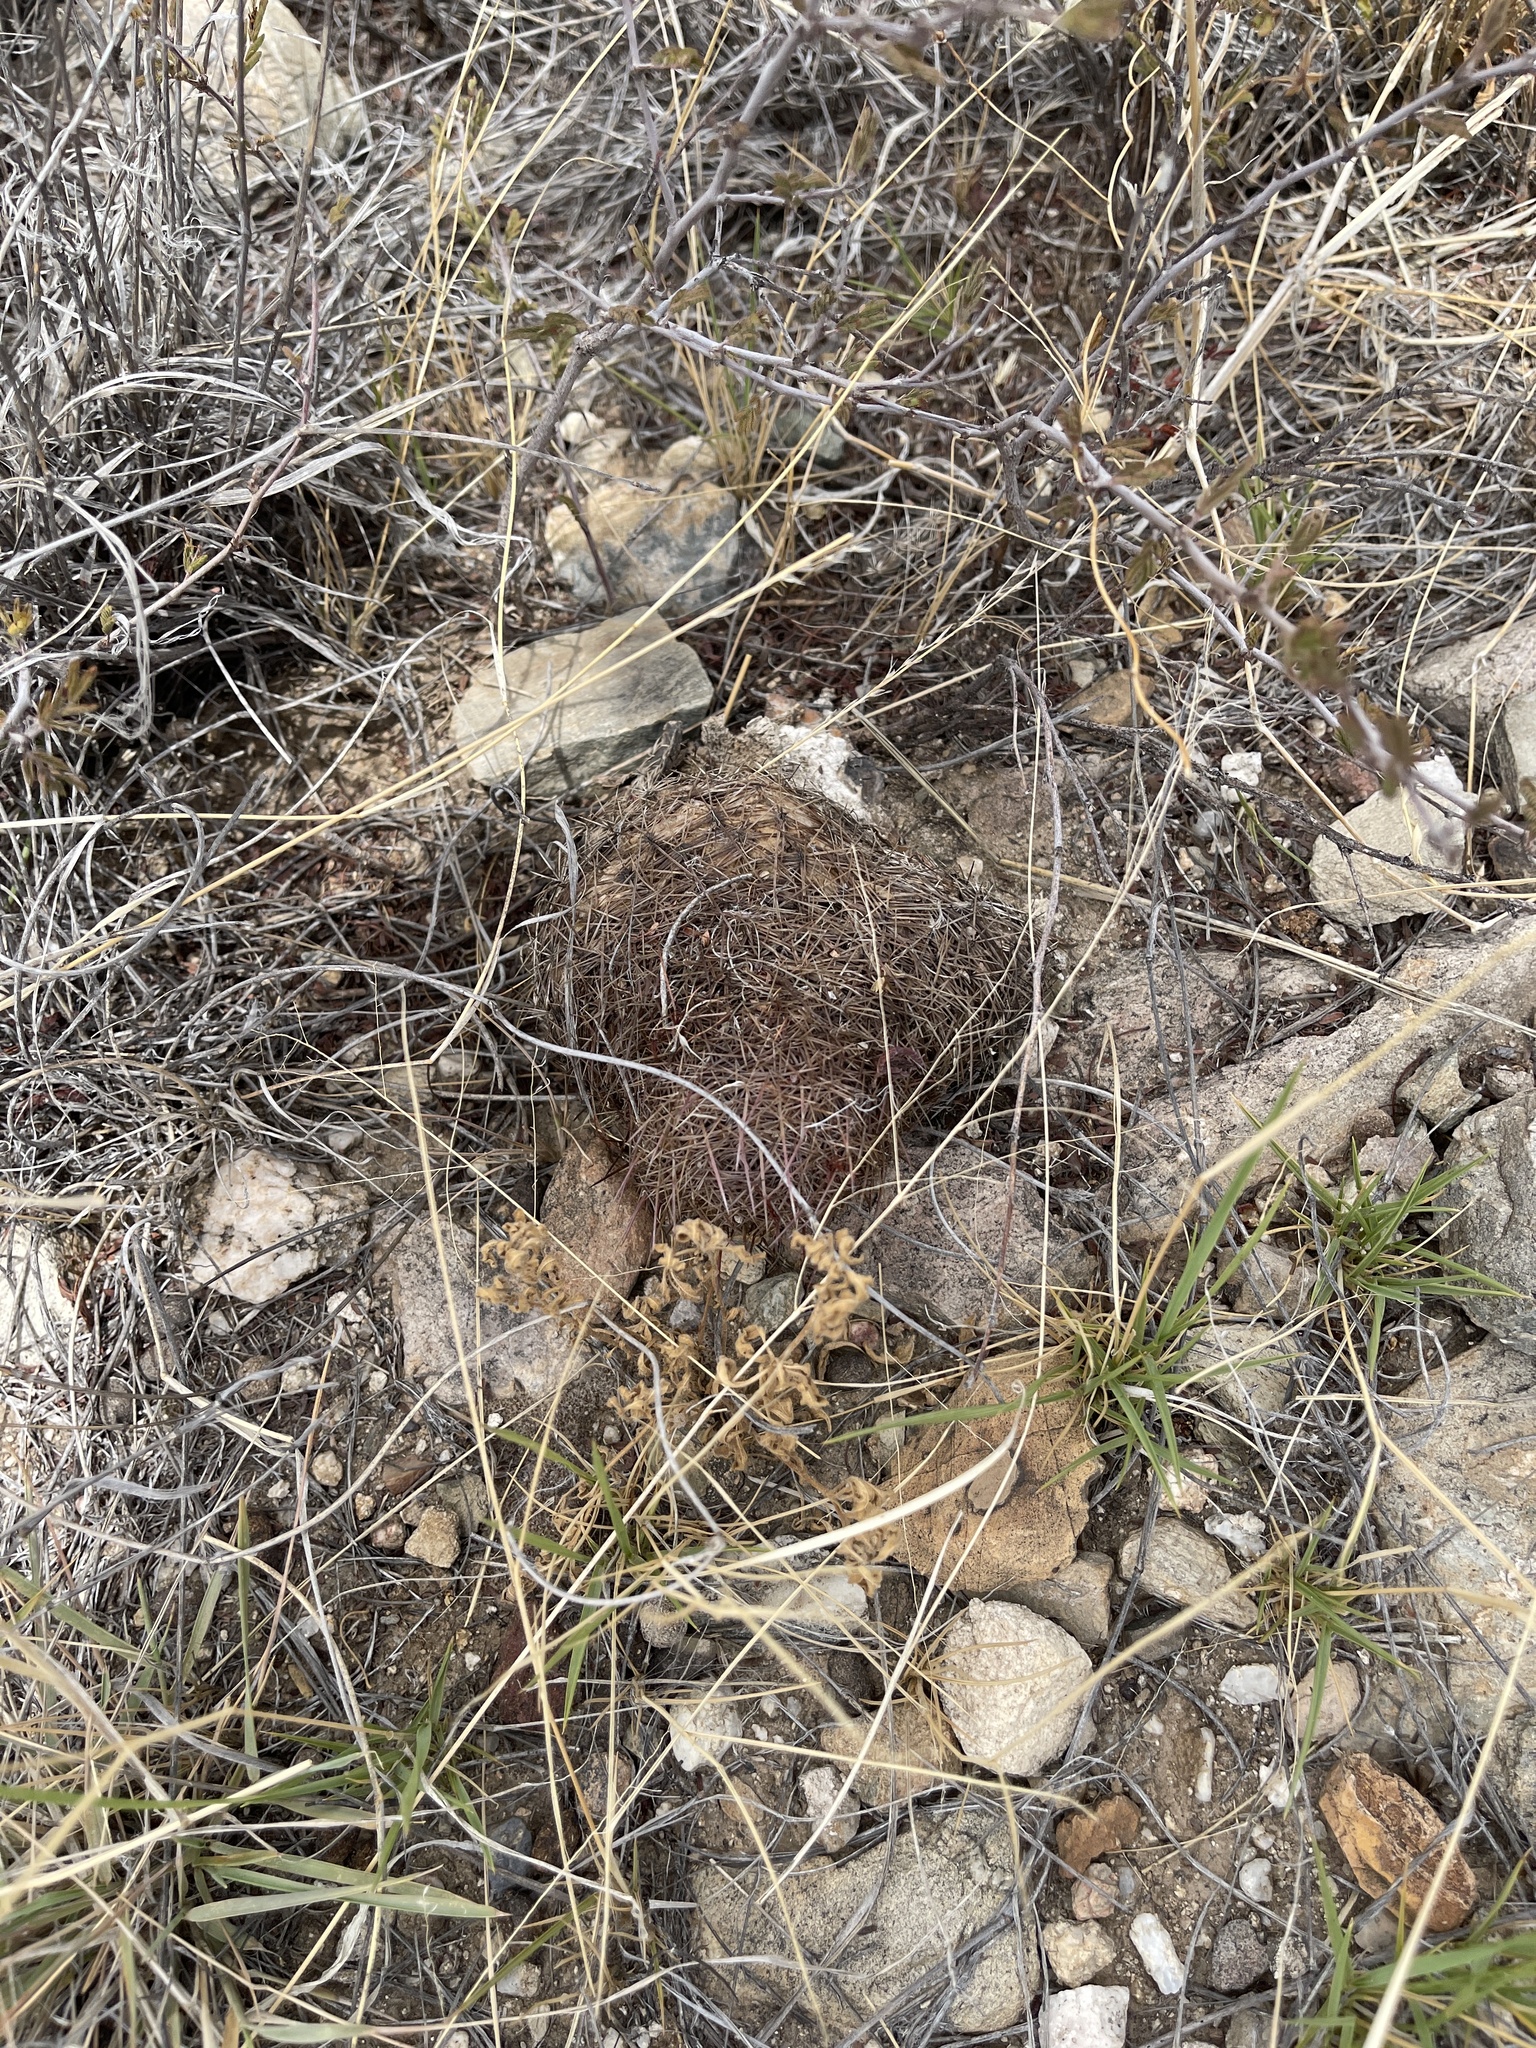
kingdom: Plantae
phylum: Tracheophyta
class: Magnoliopsida
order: Caryophyllales
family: Cactaceae
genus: Sclerocactus
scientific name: Sclerocactus intertextus
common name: White fish-hook cactus
